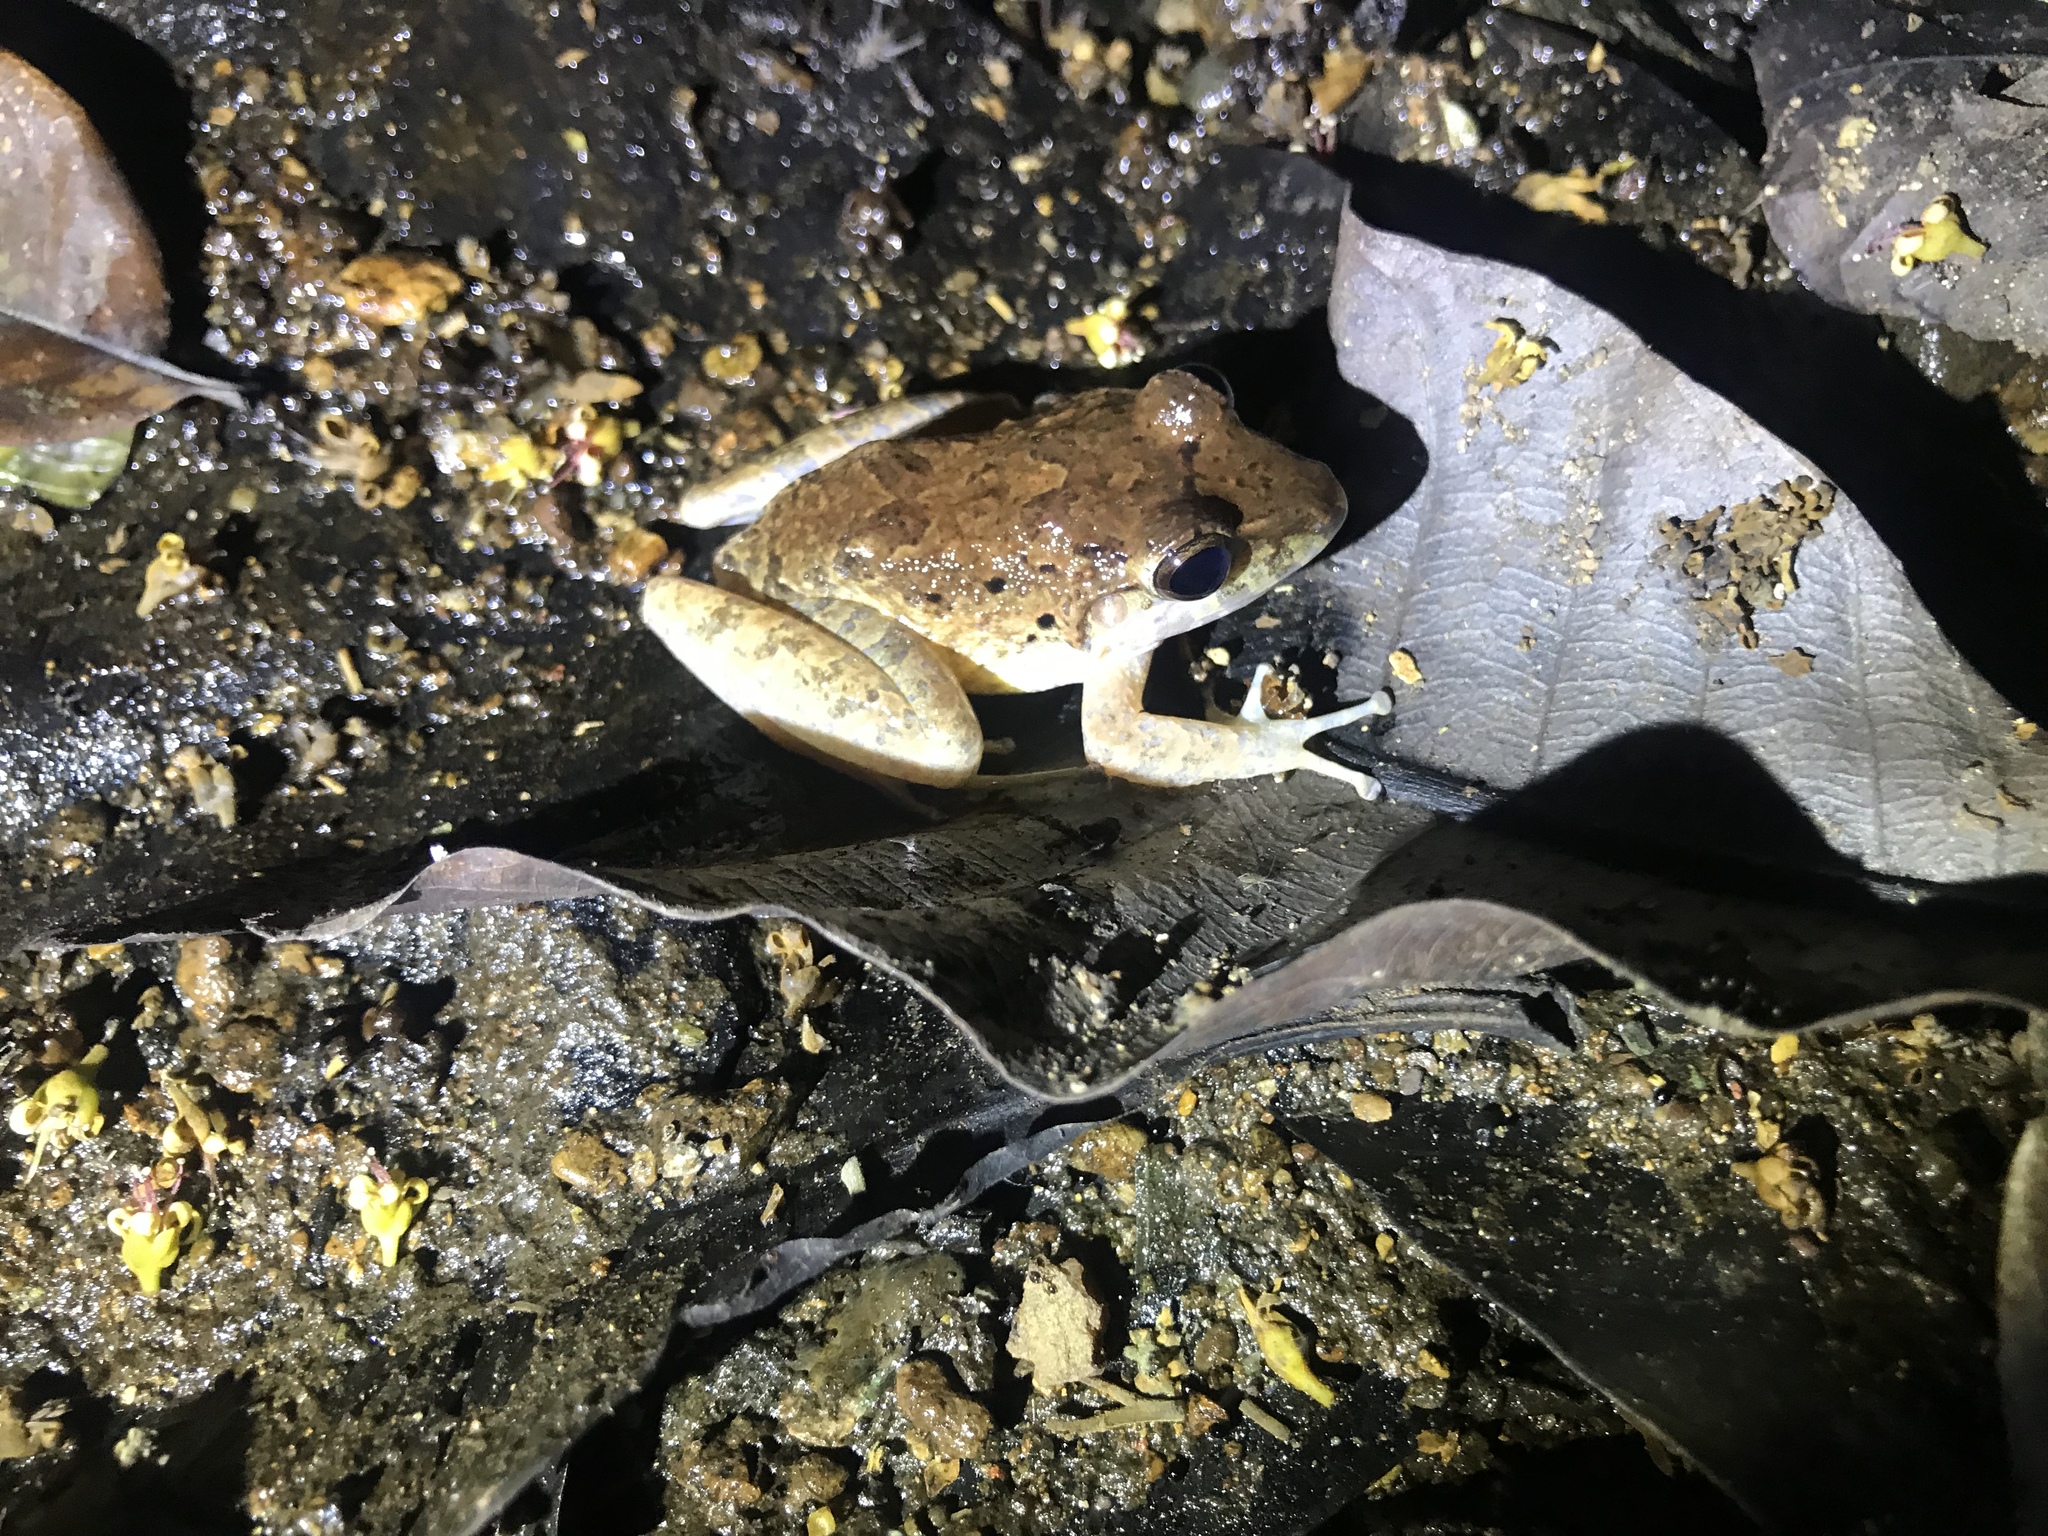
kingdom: Animalia
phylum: Chordata
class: Amphibia
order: Anura
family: Craugastoridae
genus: Craugastor
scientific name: Craugastor fitzingeri
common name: Fitzinger's robber frog
